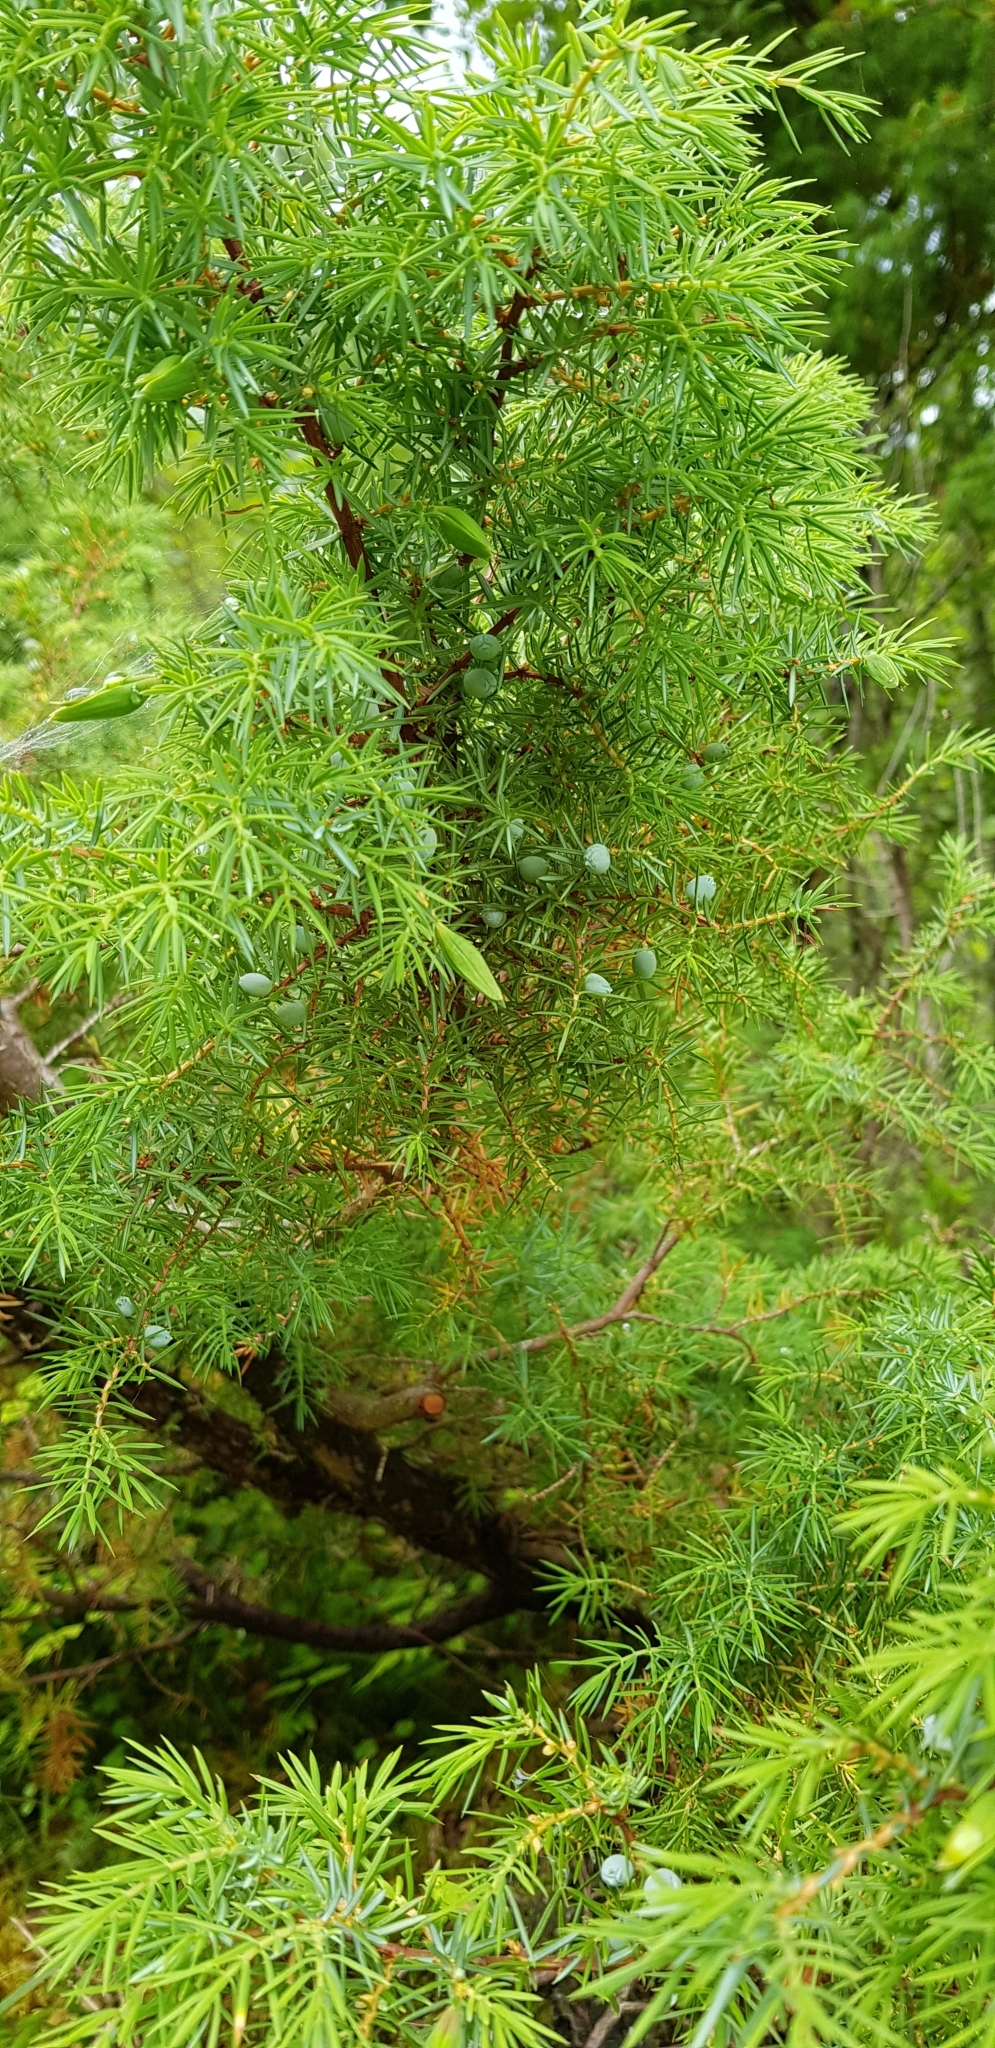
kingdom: Plantae
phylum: Tracheophyta
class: Pinopsida
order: Pinales
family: Cupressaceae
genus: Juniperus
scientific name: Juniperus communis
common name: Common juniper
